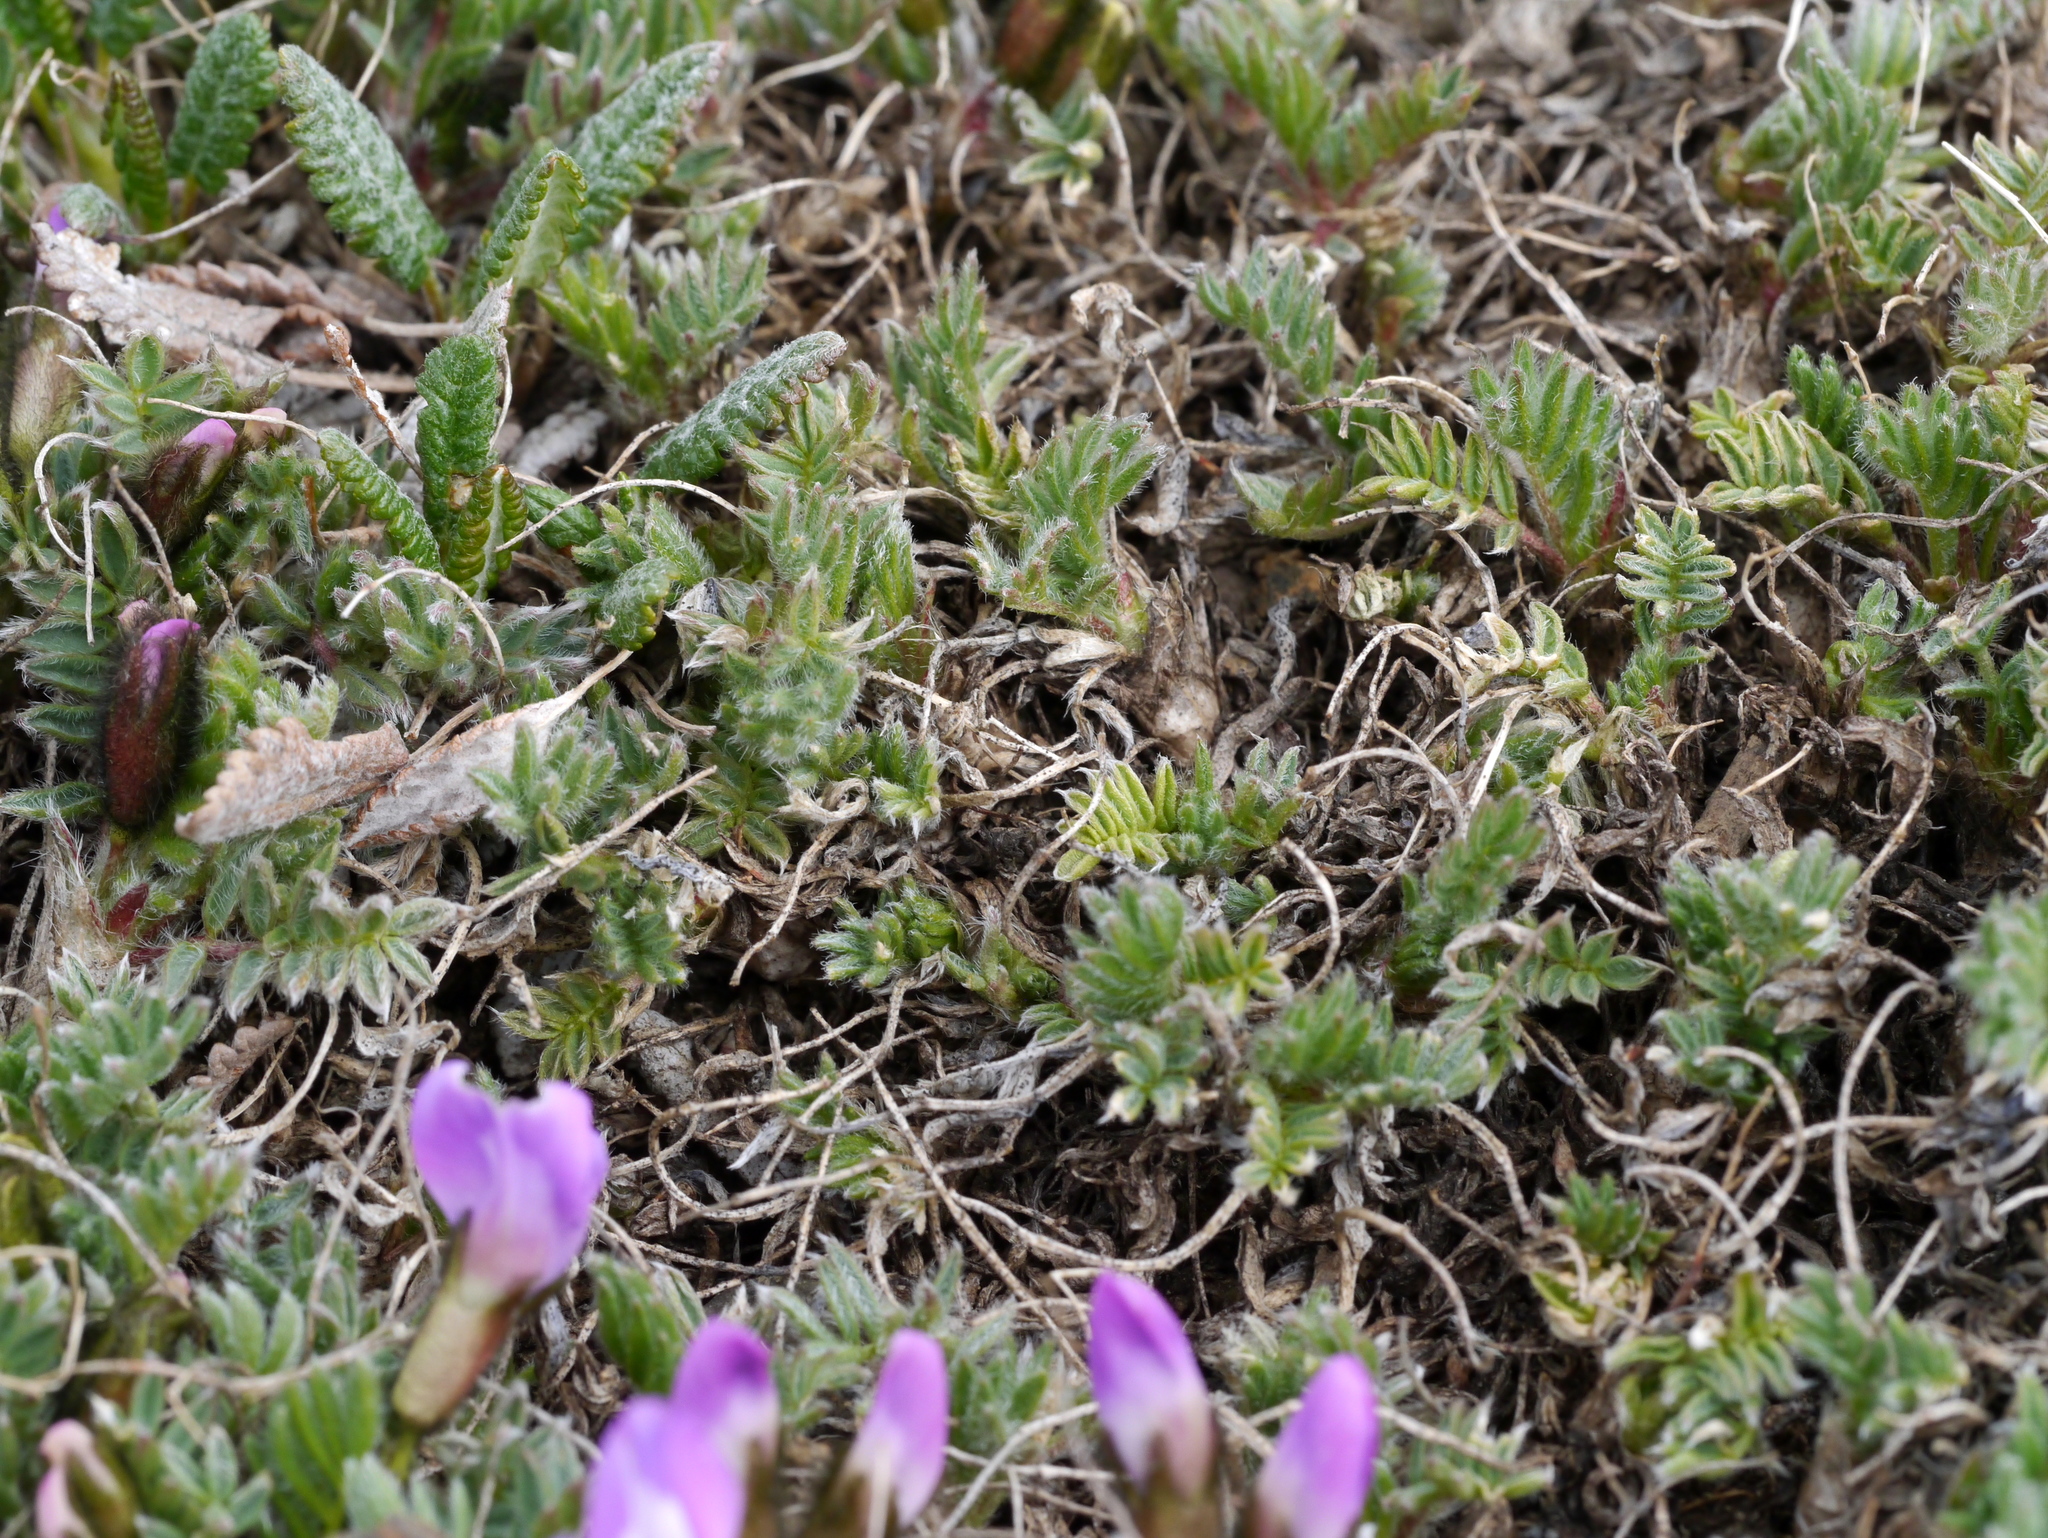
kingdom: Plantae
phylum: Tracheophyta
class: Magnoliopsida
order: Fabales
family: Fabaceae
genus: Oxytropis
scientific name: Oxytropis nigrescens
